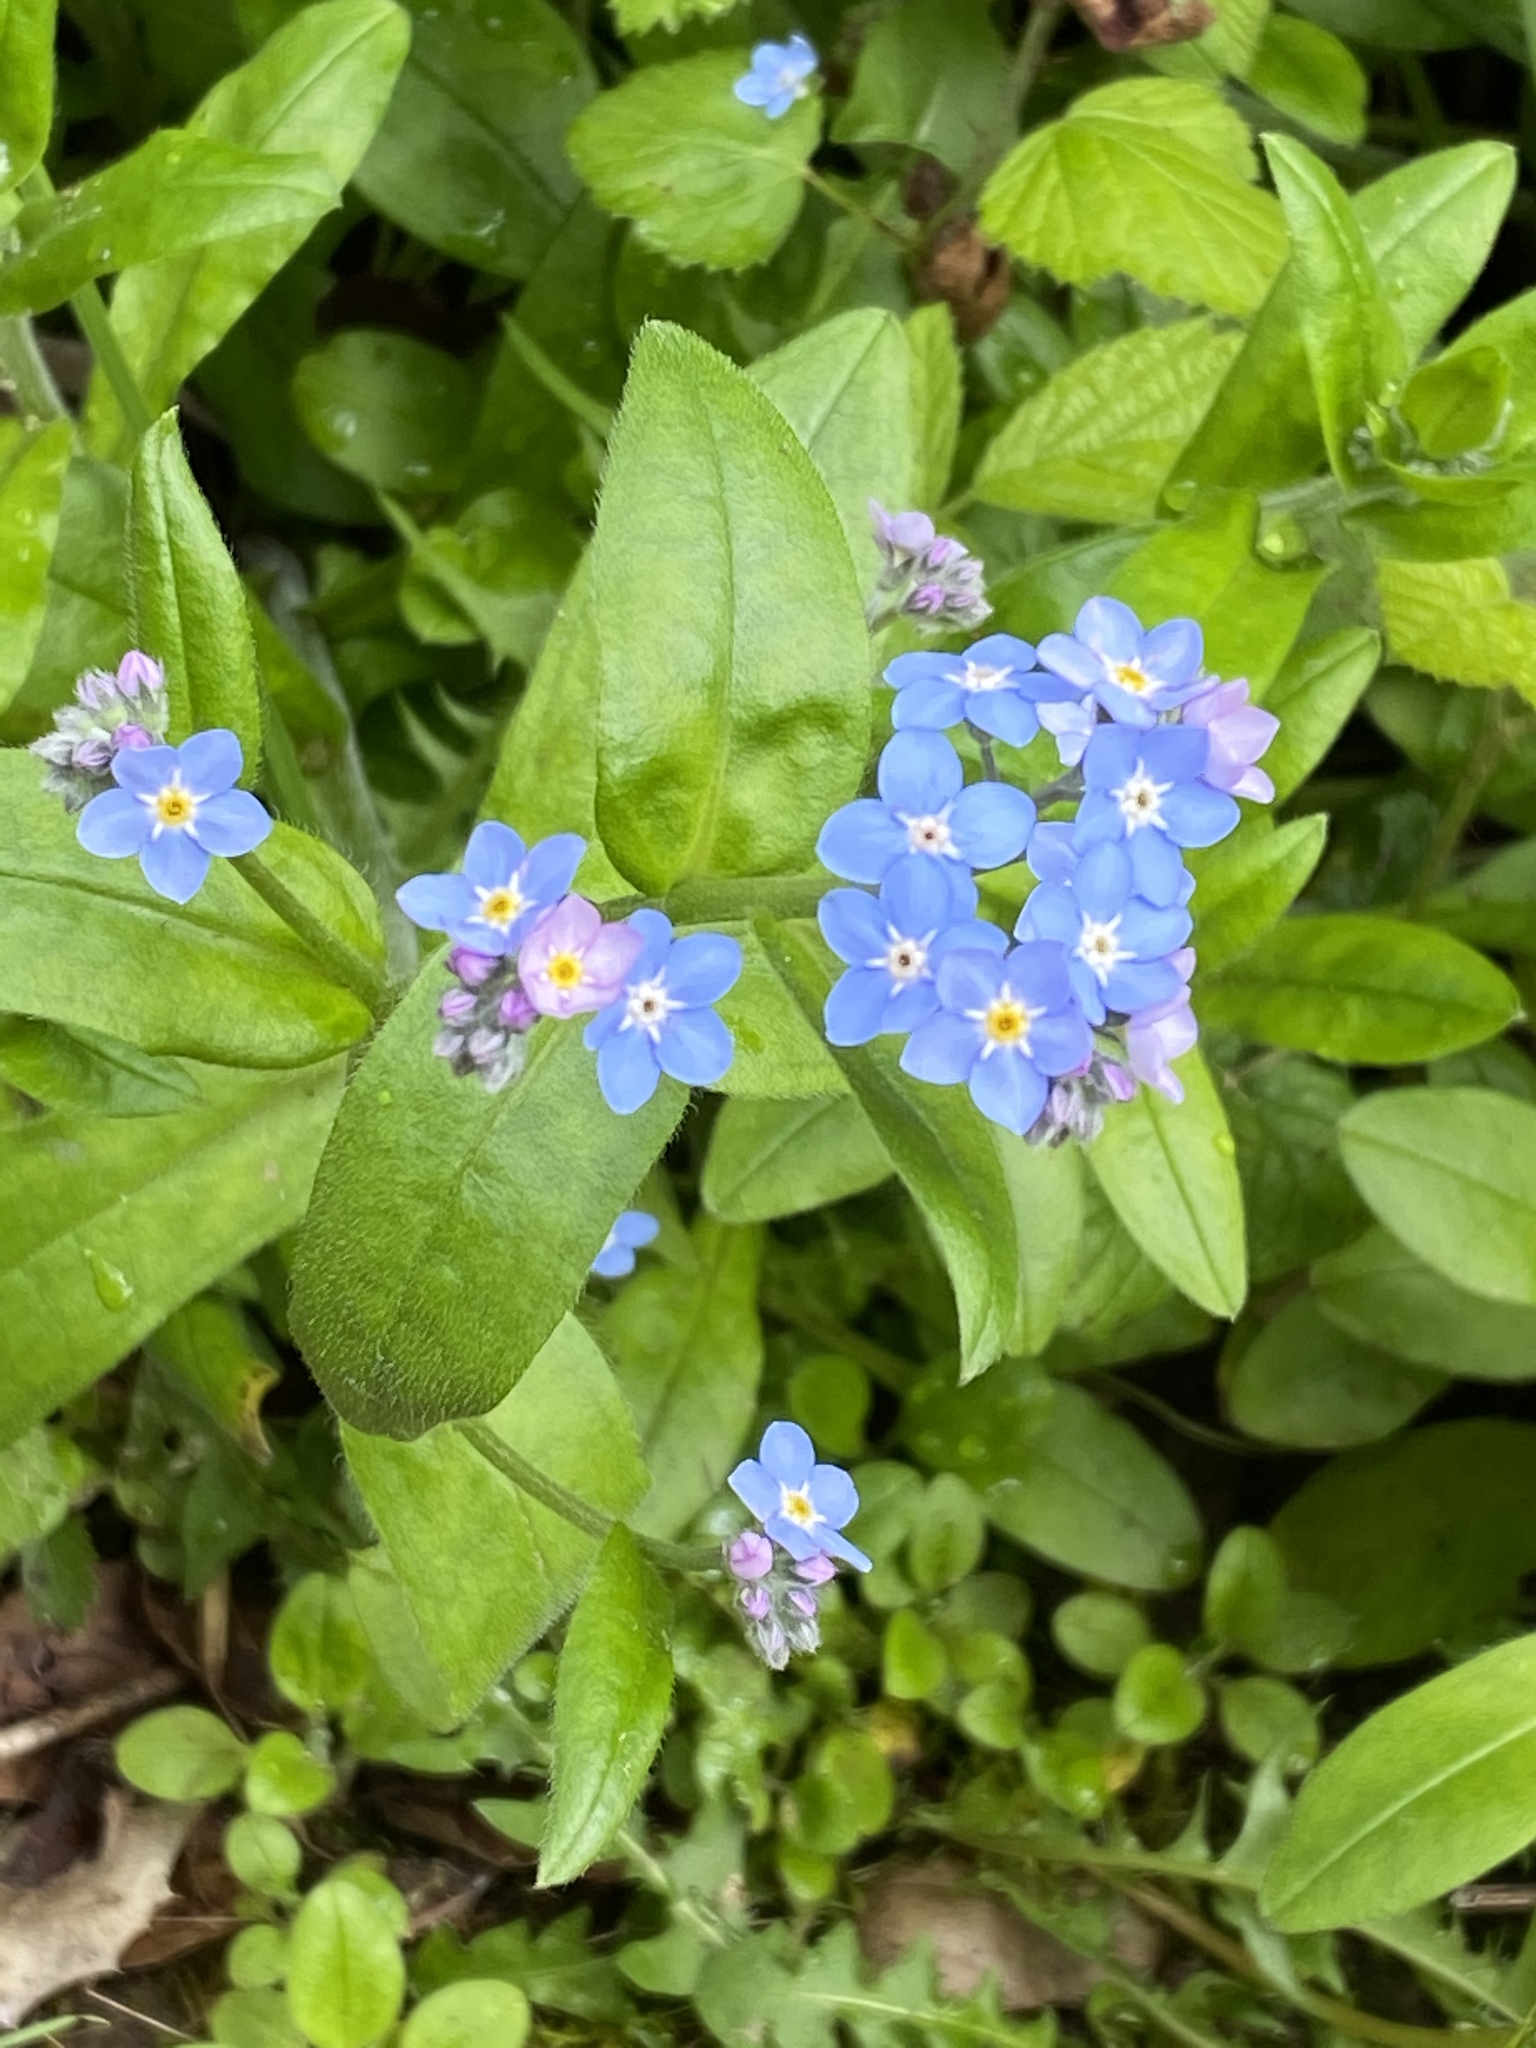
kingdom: Plantae
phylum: Tracheophyta
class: Magnoliopsida
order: Boraginales
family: Boraginaceae
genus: Myosotis
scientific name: Myosotis latifolia
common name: Broadleaf forget-me-not
